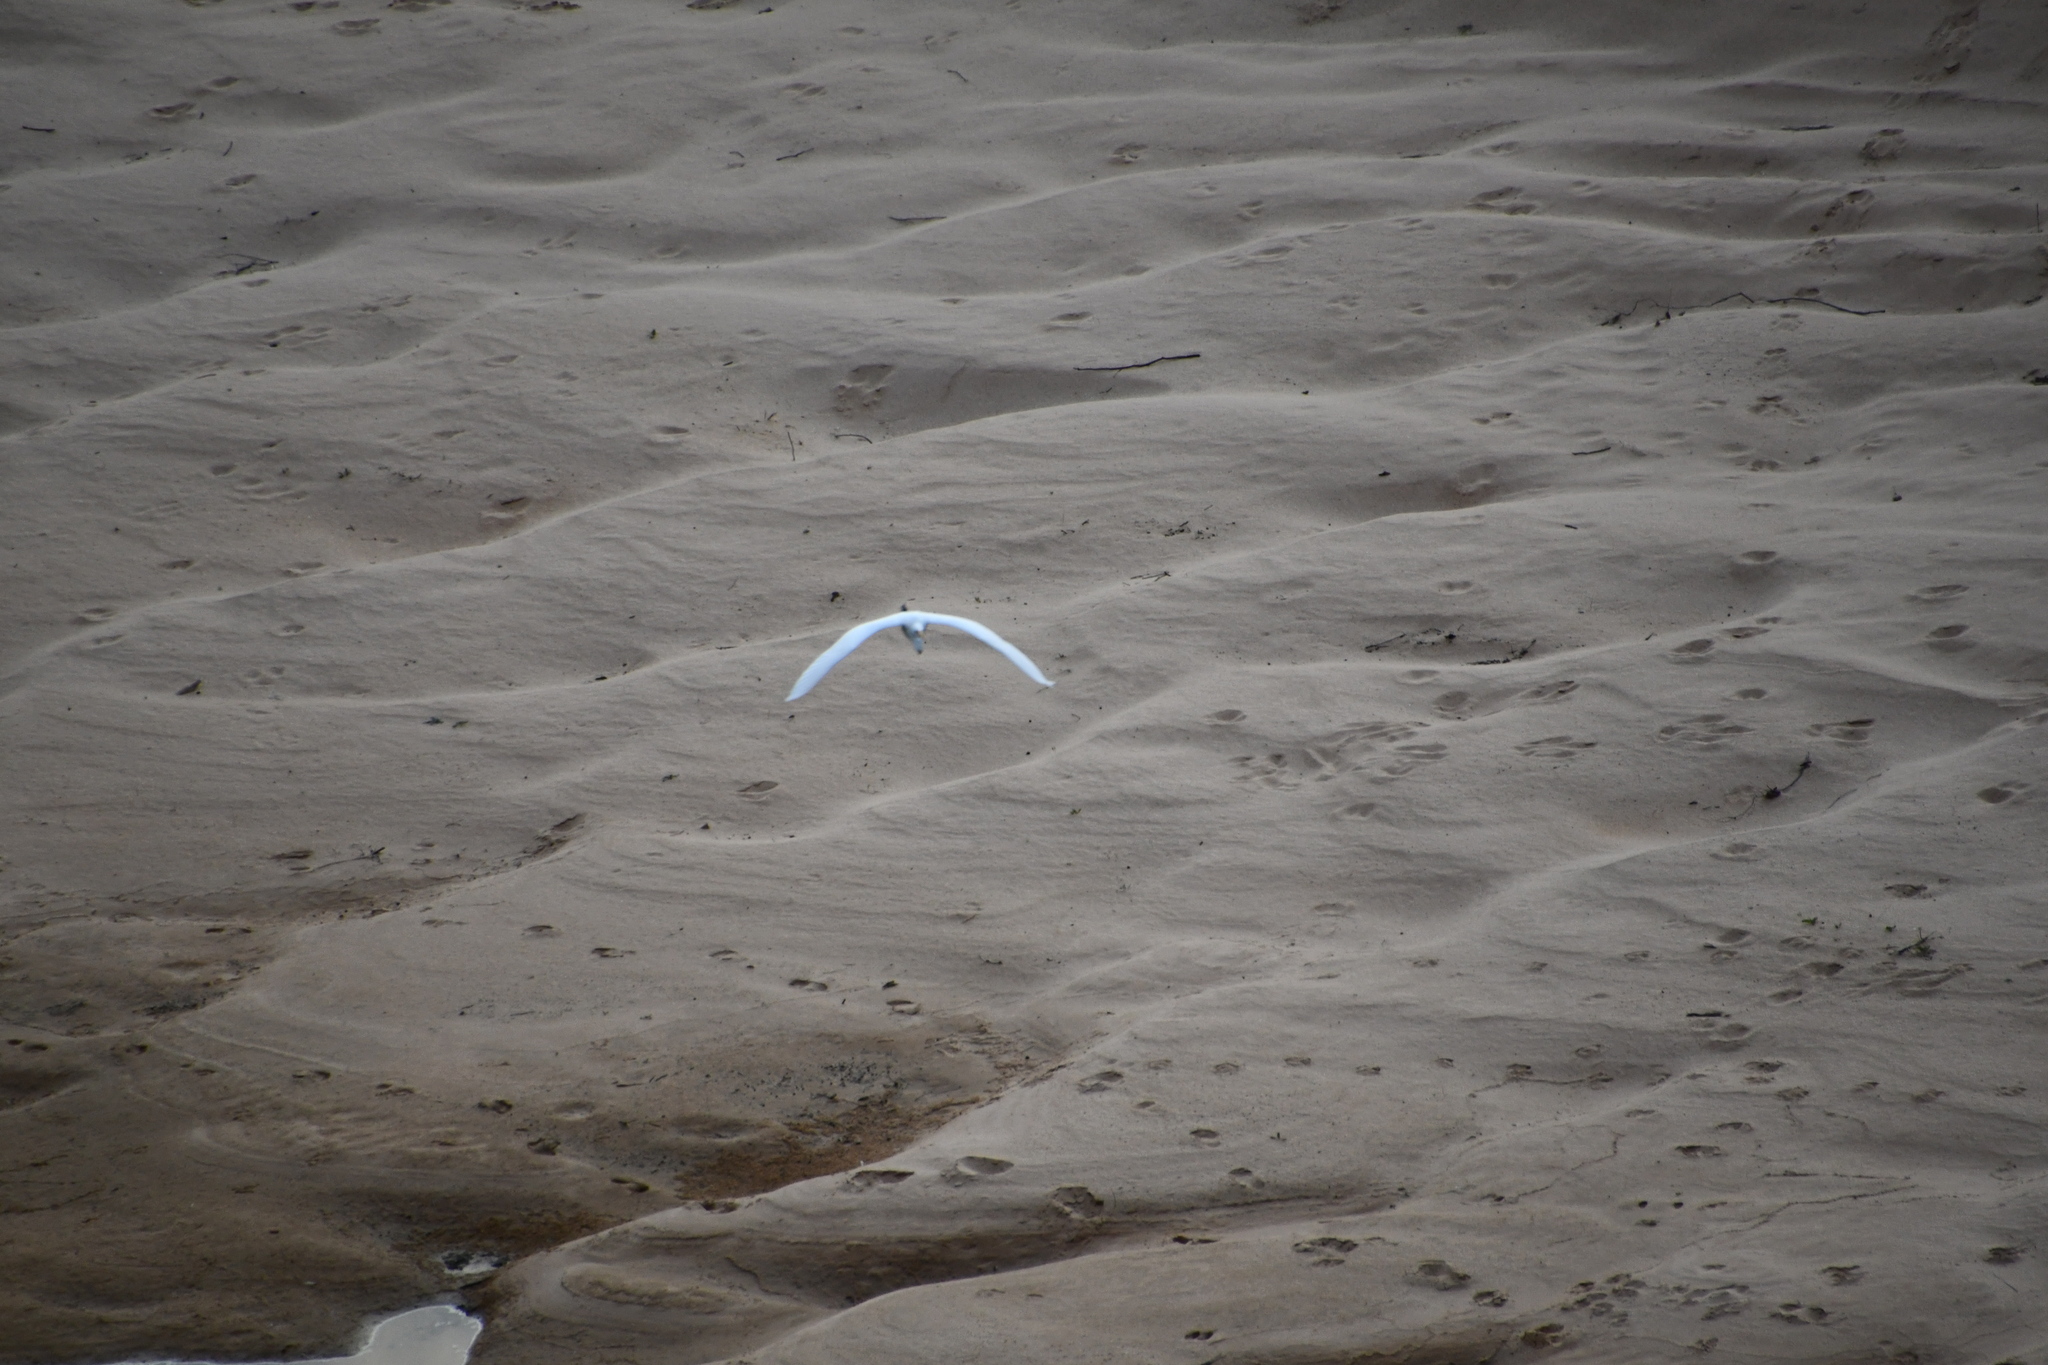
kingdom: Animalia
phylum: Chordata
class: Aves
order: Pelecaniformes
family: Ardeidae
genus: Ardea
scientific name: Ardea alba
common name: Great egret
